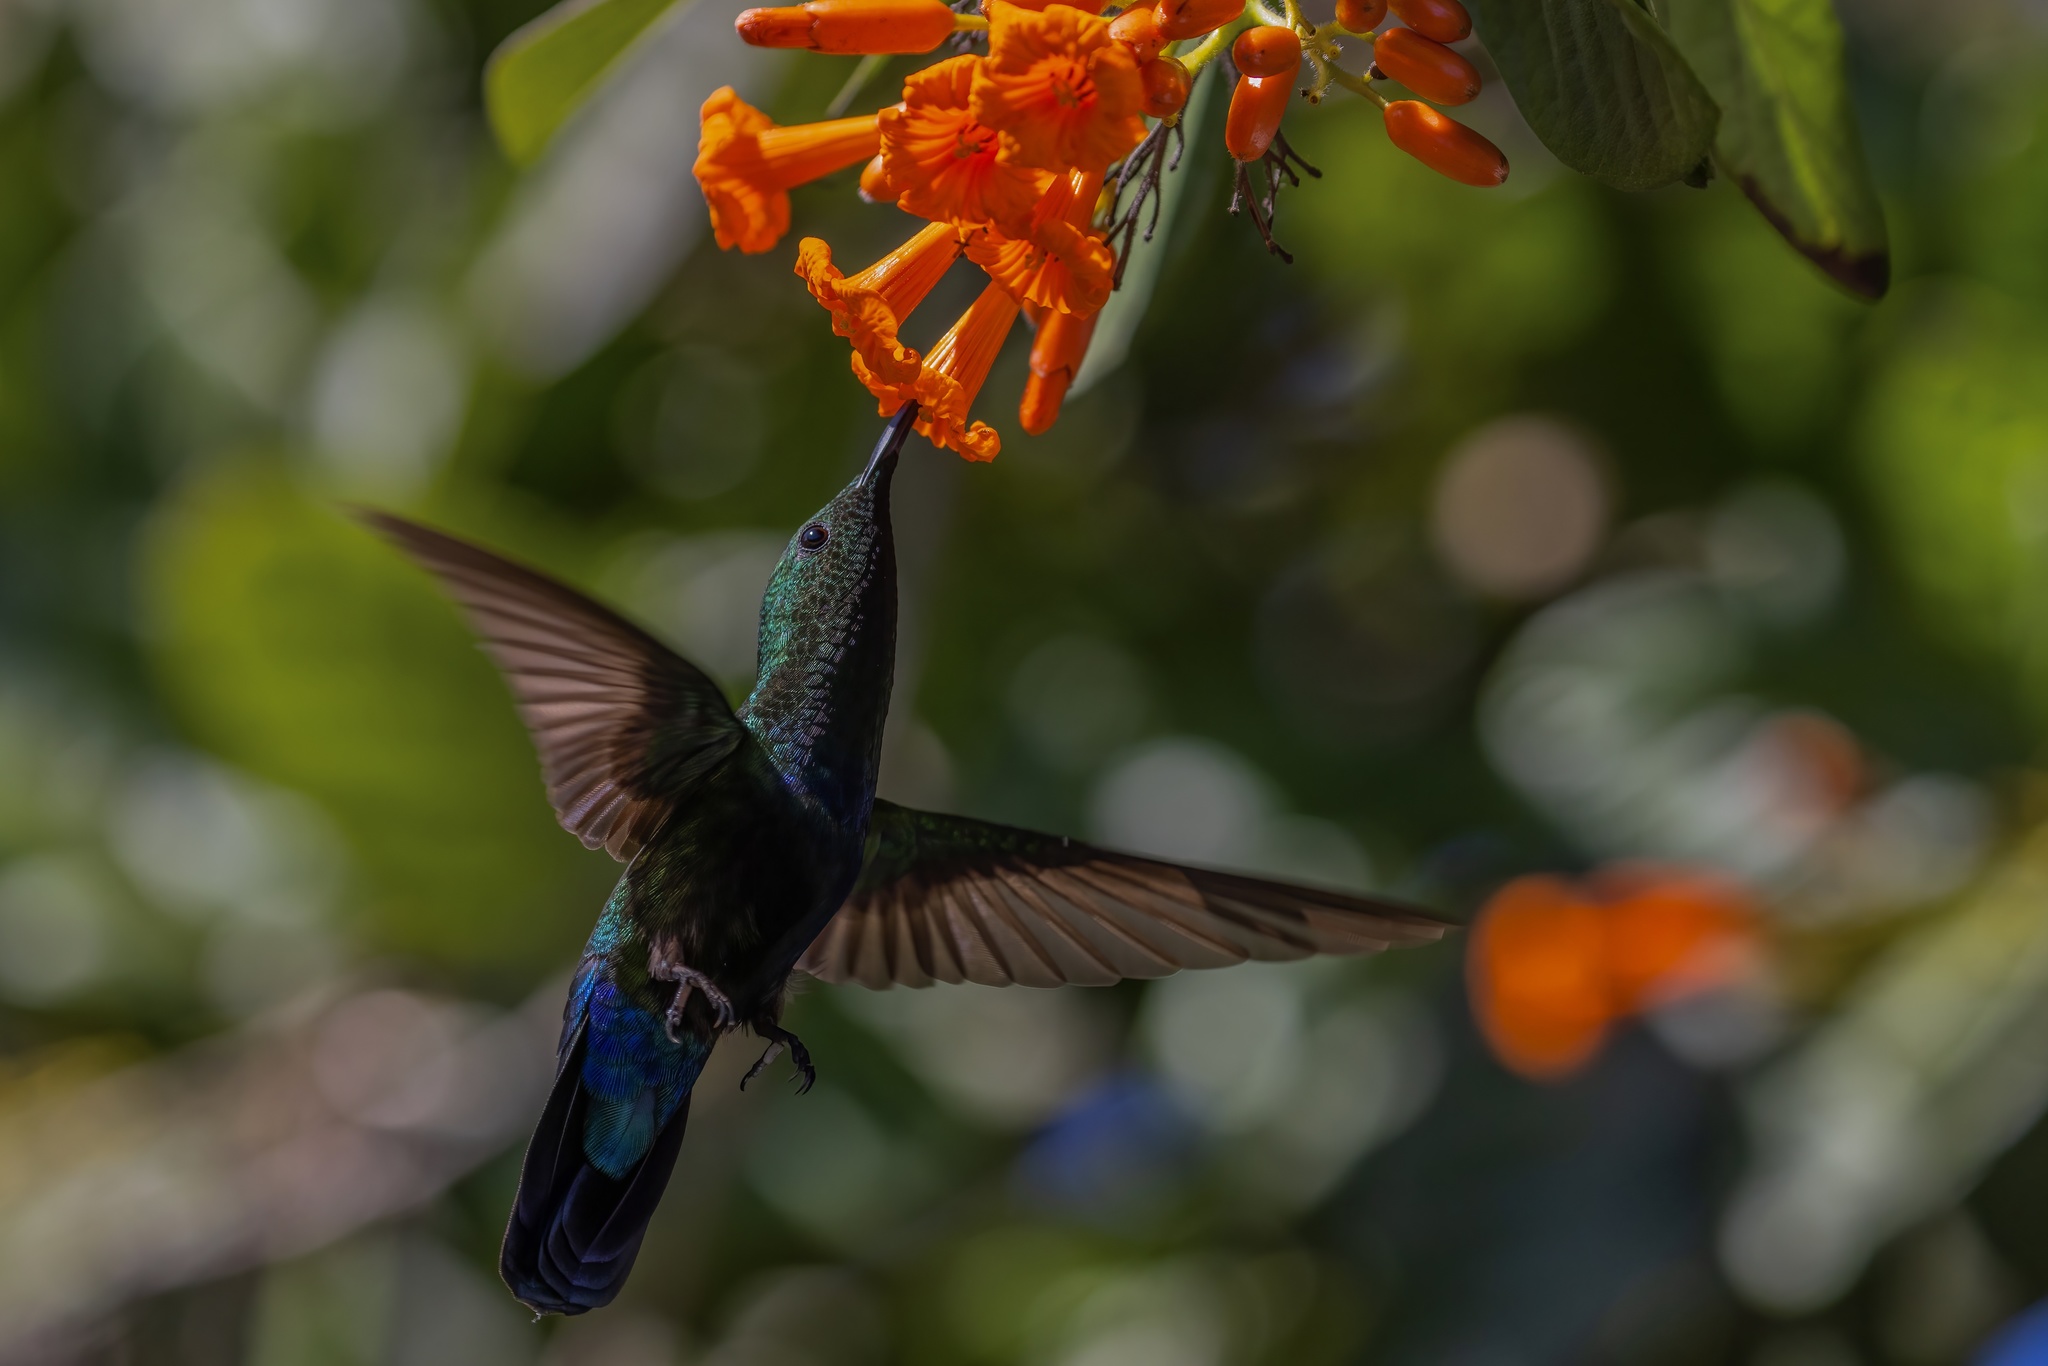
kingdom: Animalia
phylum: Chordata
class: Aves
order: Apodiformes
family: Trochilidae
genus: Eulampis
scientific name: Eulampis holosericeus
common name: Green-throated carib
